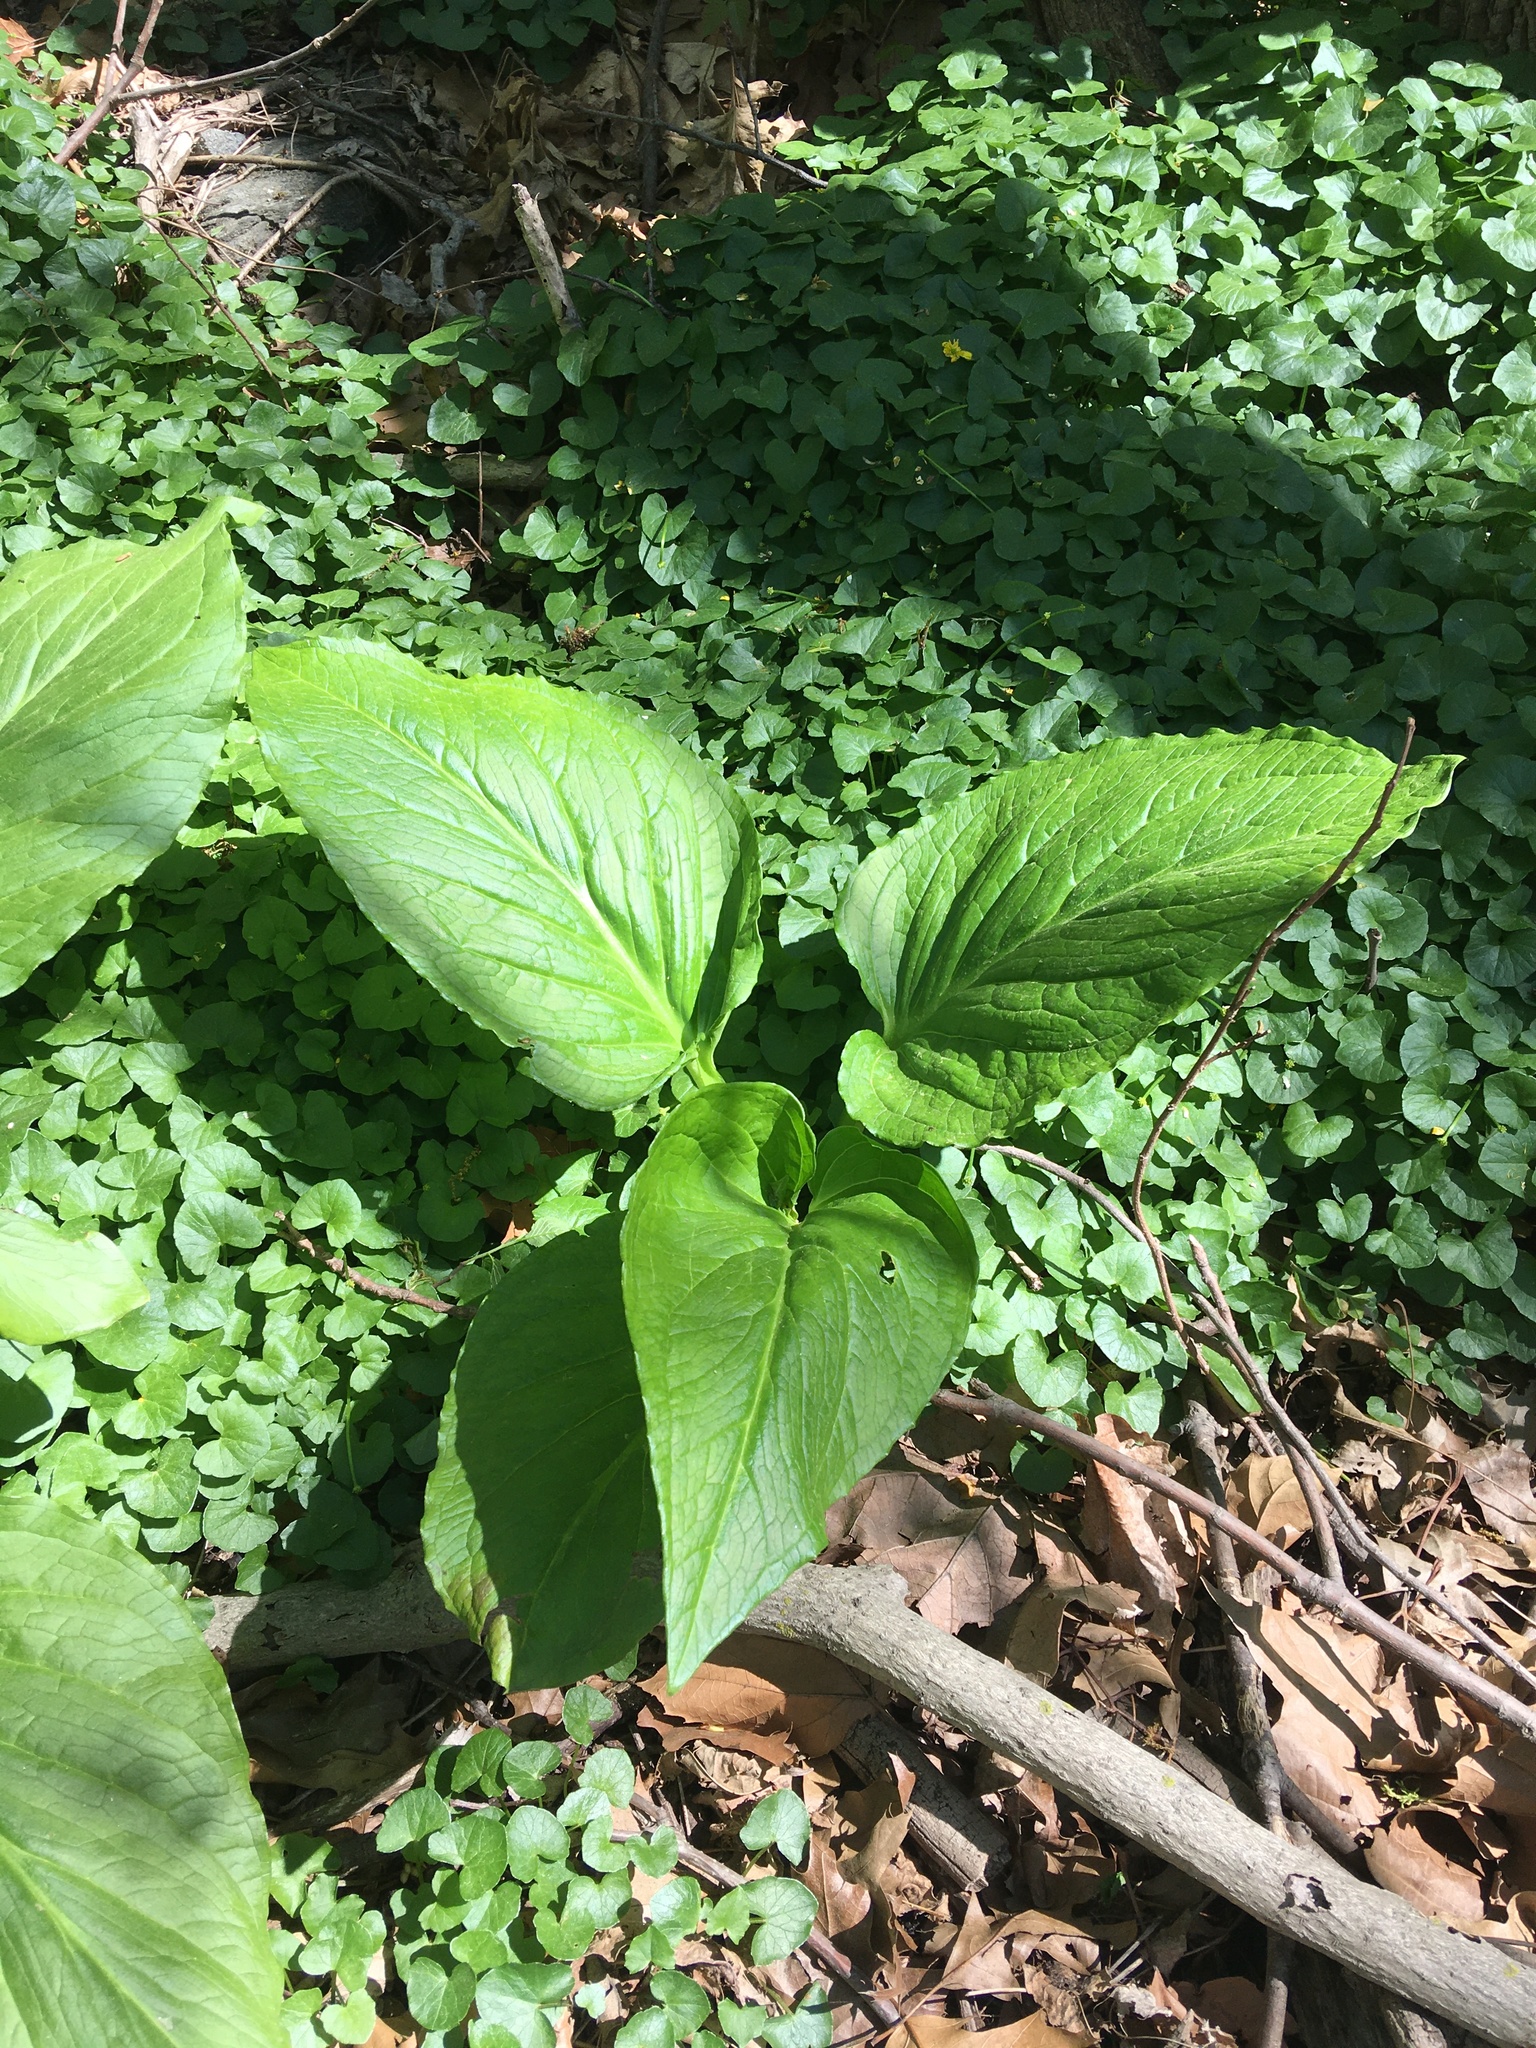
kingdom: Plantae
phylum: Tracheophyta
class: Liliopsida
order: Alismatales
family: Araceae
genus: Symplocarpus
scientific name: Symplocarpus foetidus
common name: Eastern skunk cabbage
